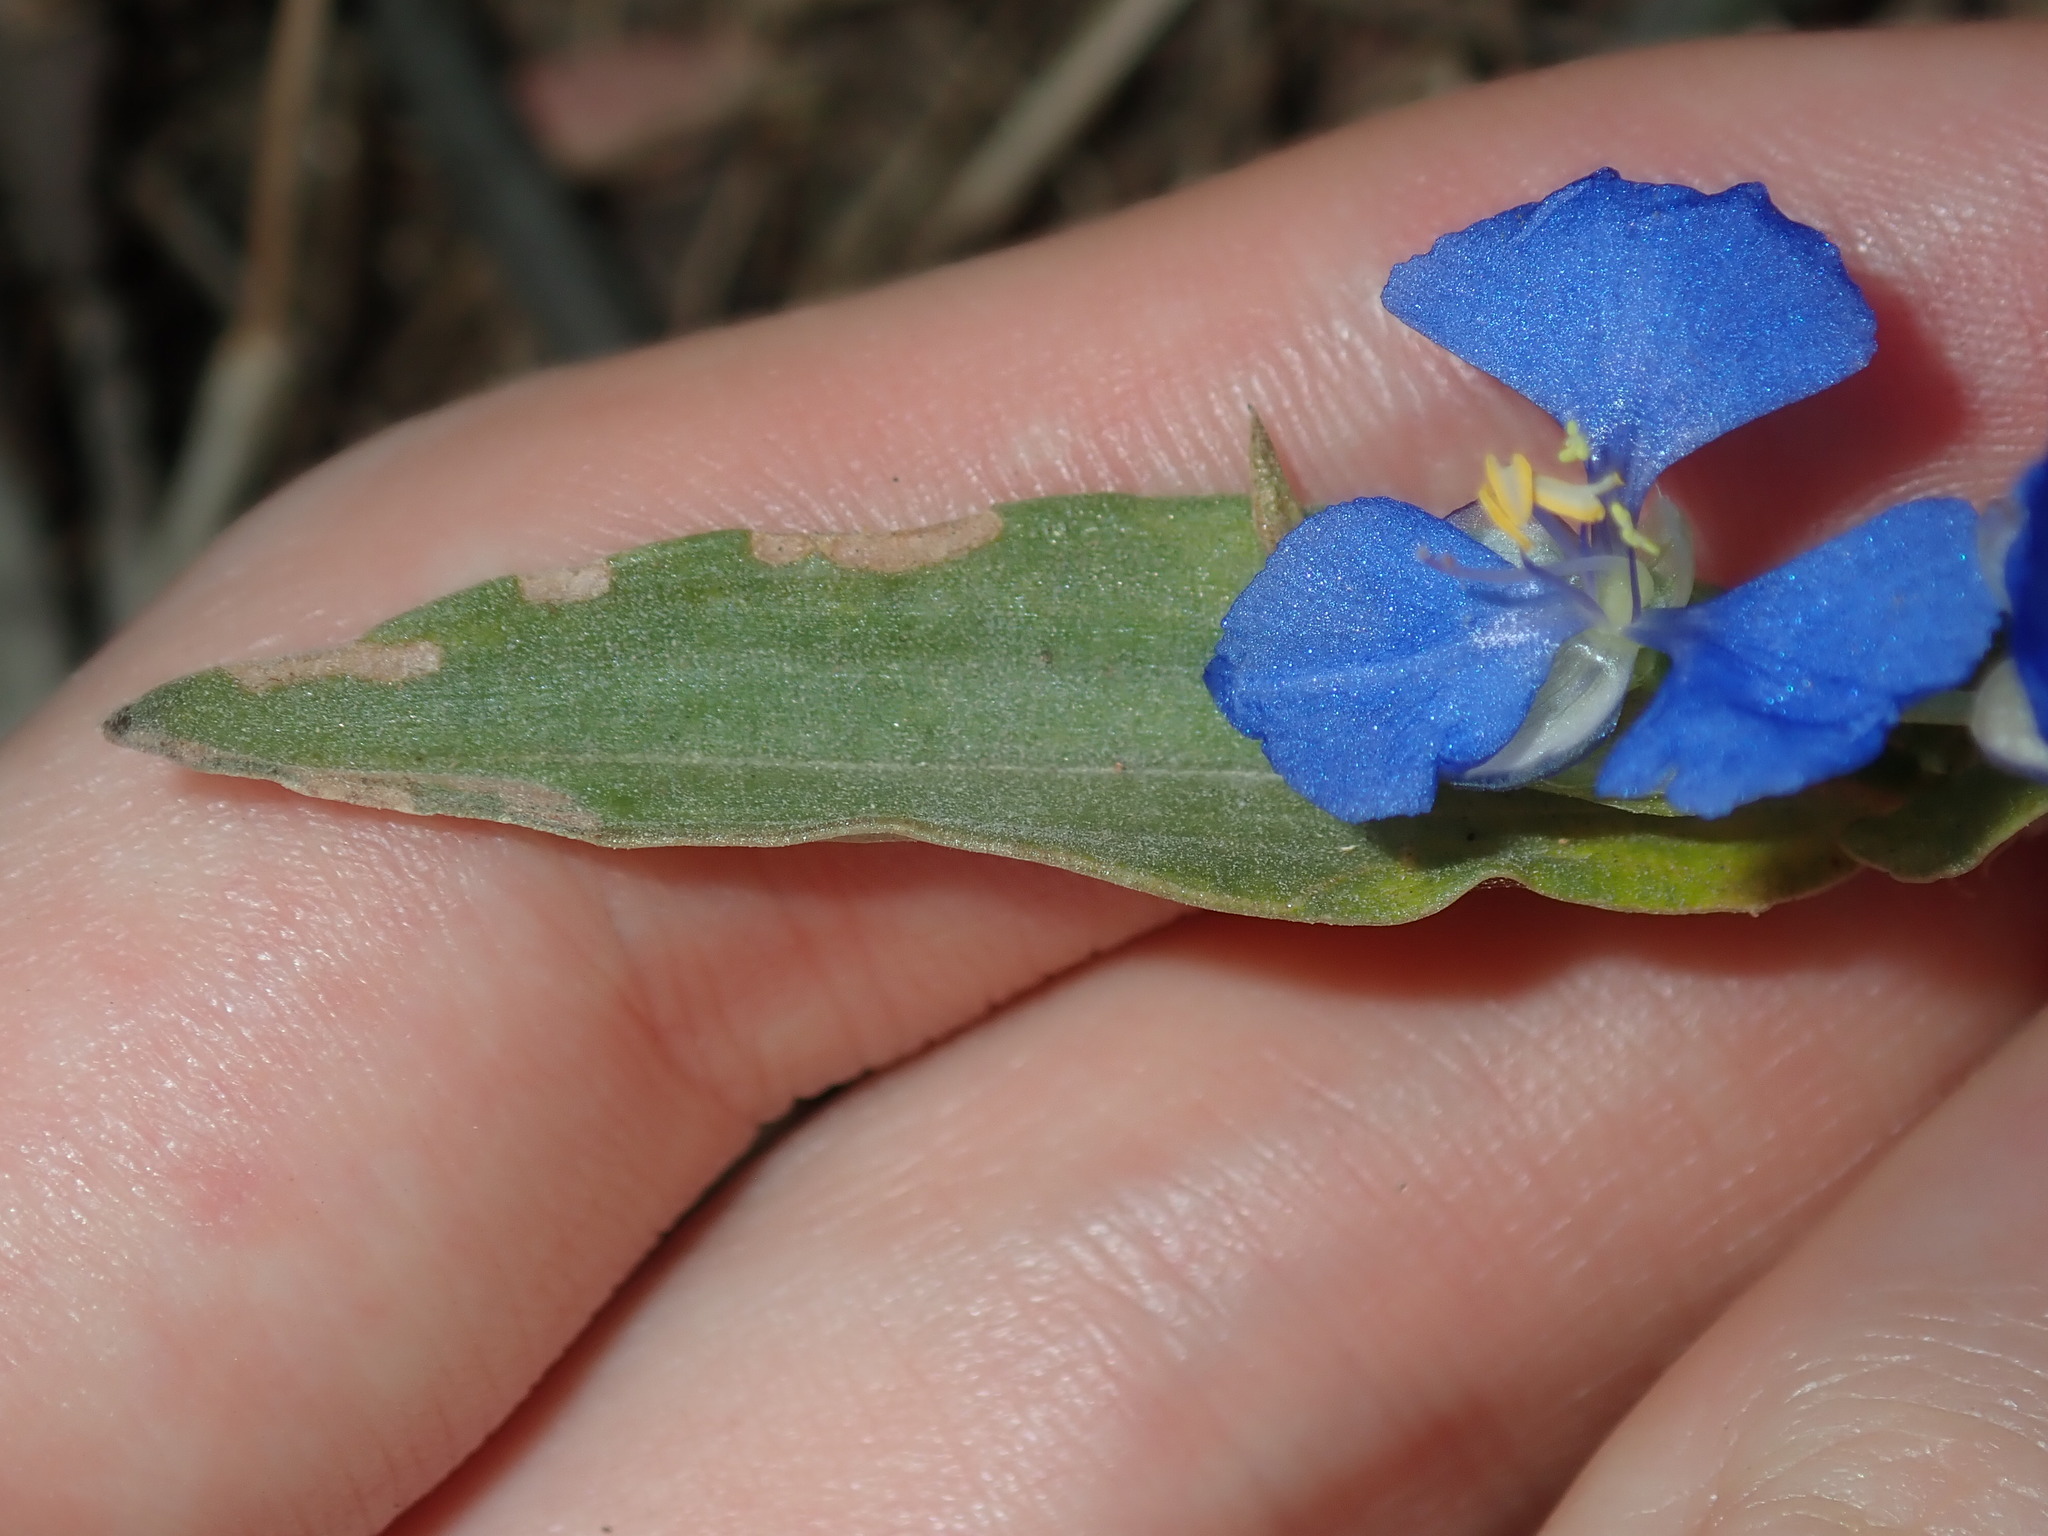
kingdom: Plantae
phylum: Tracheophyta
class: Liliopsida
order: Commelinales
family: Commelinaceae
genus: Commelina
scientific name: Commelina cyanea
